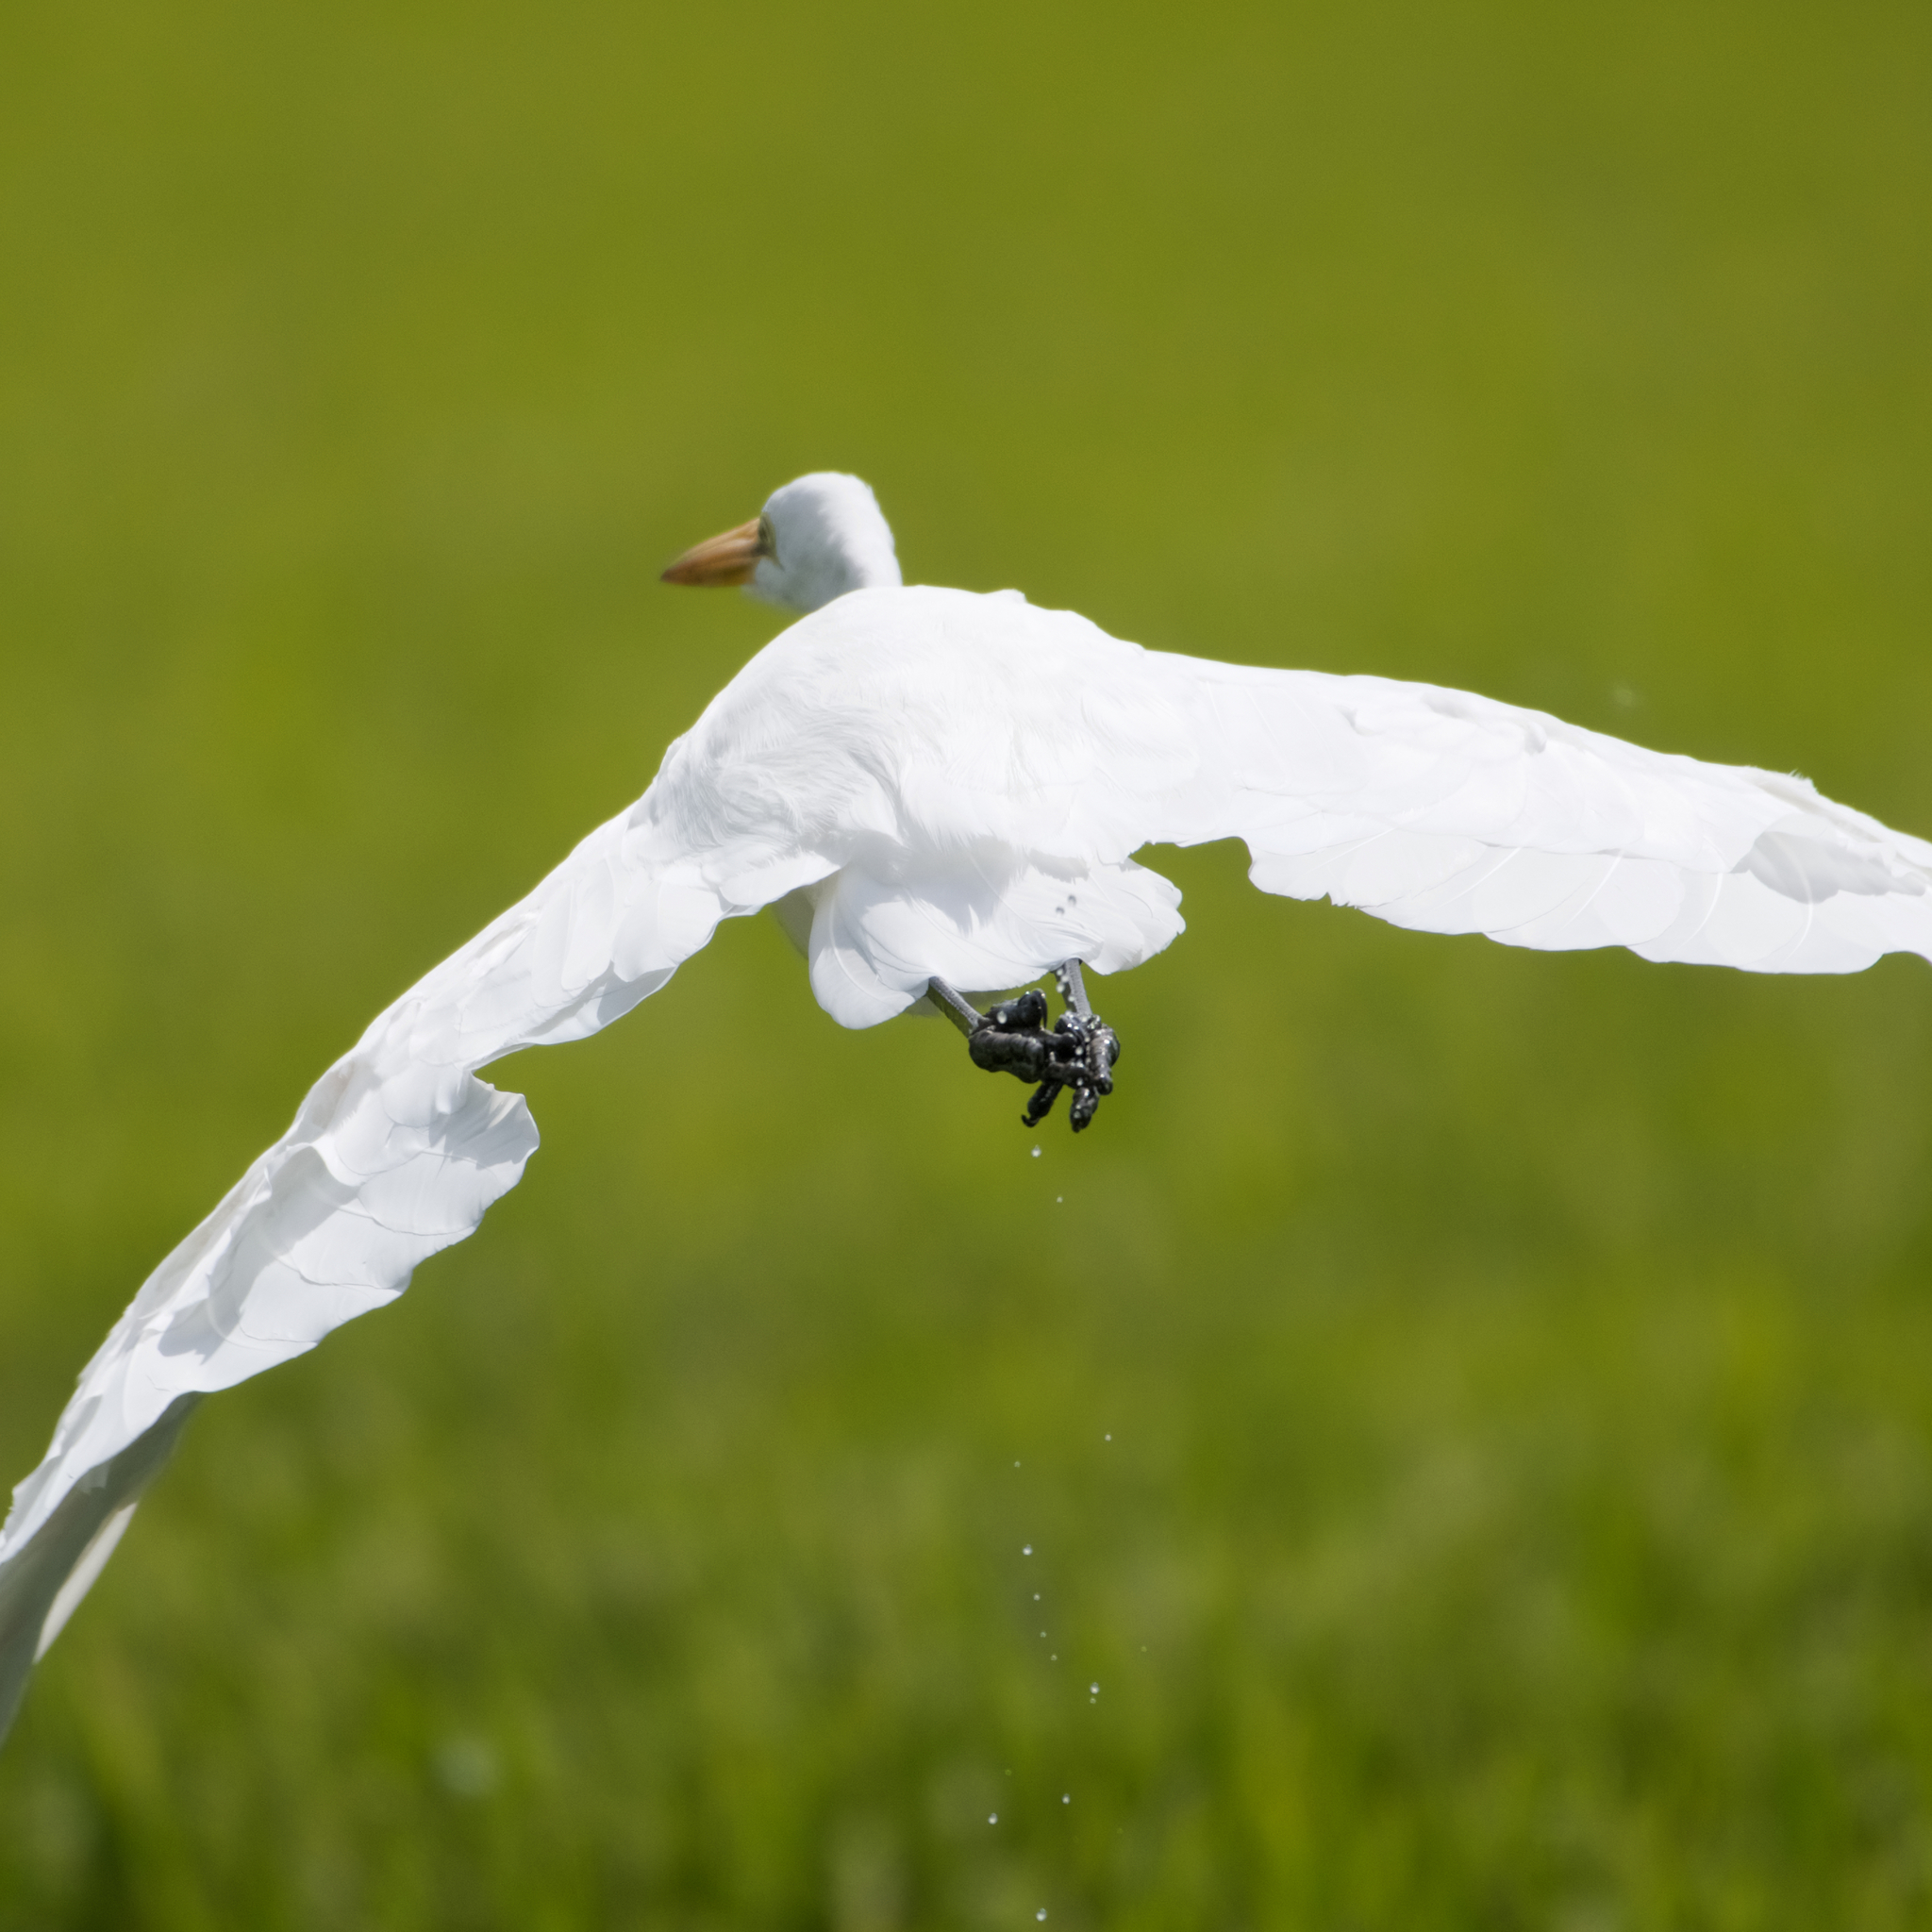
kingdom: Animalia
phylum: Chordata
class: Aves
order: Pelecaniformes
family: Ardeidae
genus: Ardea
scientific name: Ardea alba
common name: Great egret
